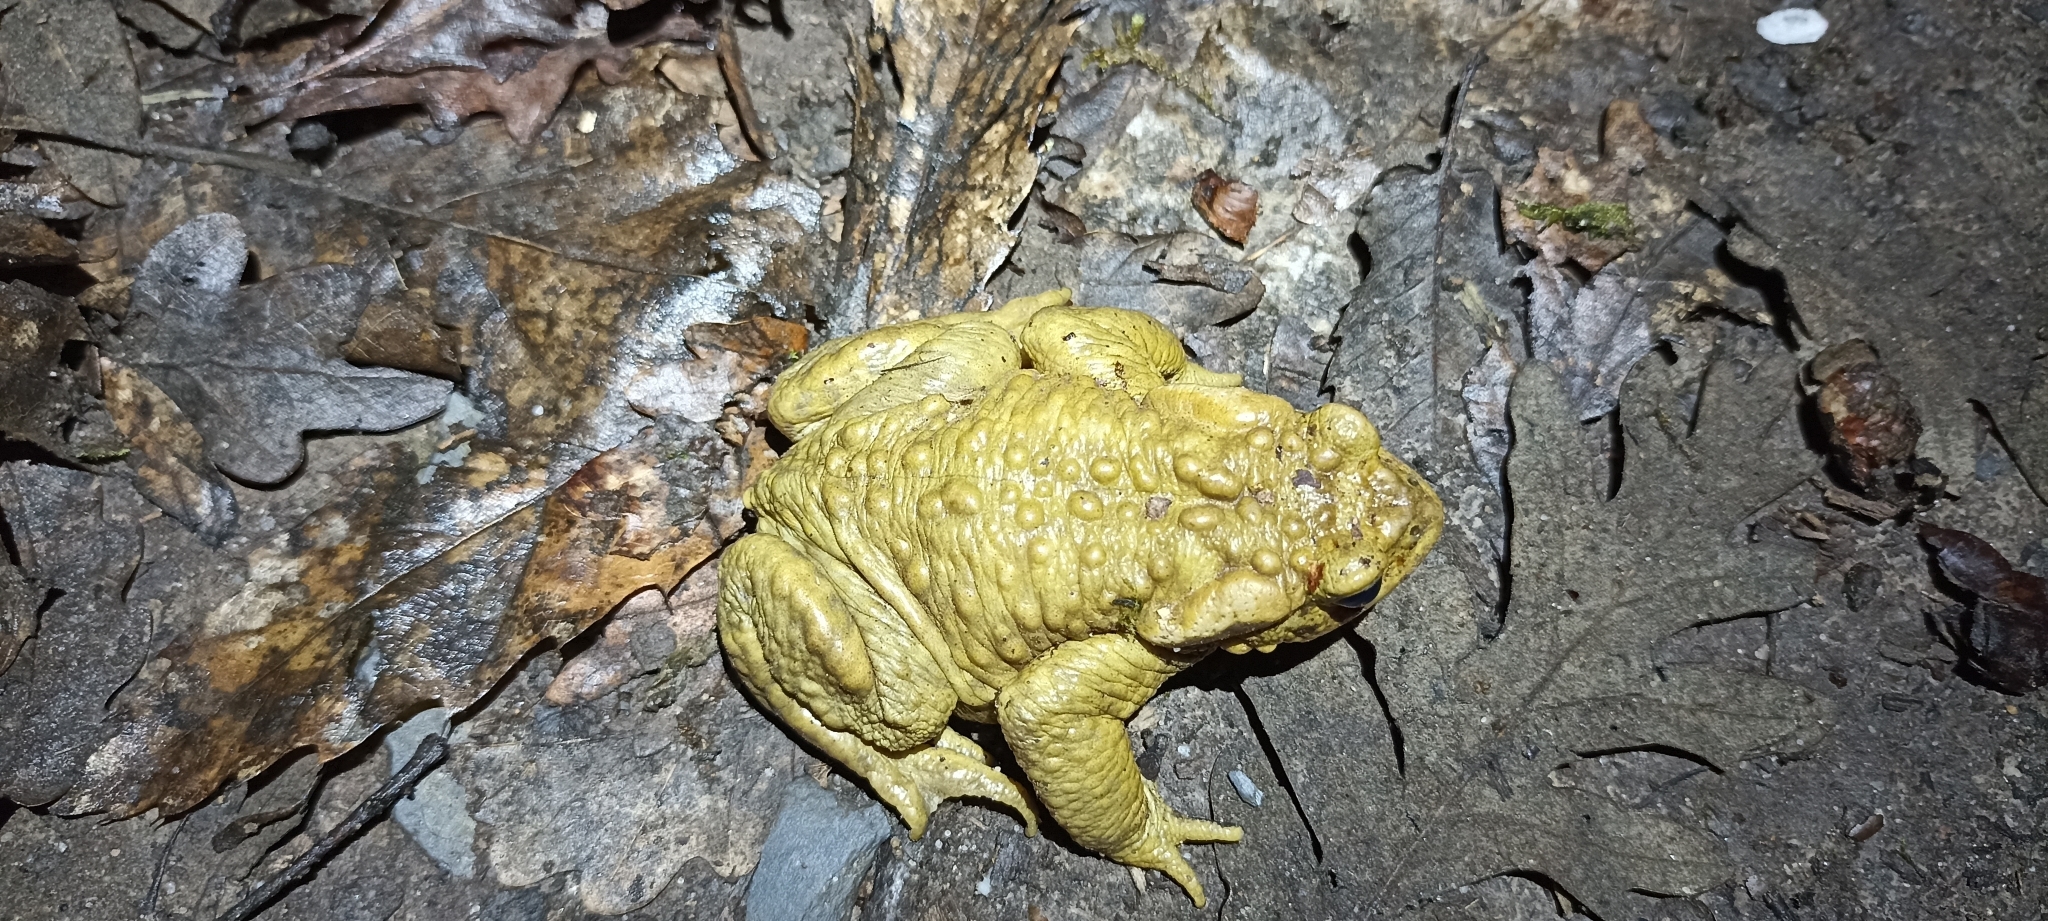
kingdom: Animalia
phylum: Chordata
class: Amphibia
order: Anura
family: Bufonidae
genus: Bufo
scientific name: Bufo spinosus
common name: Western common toad
